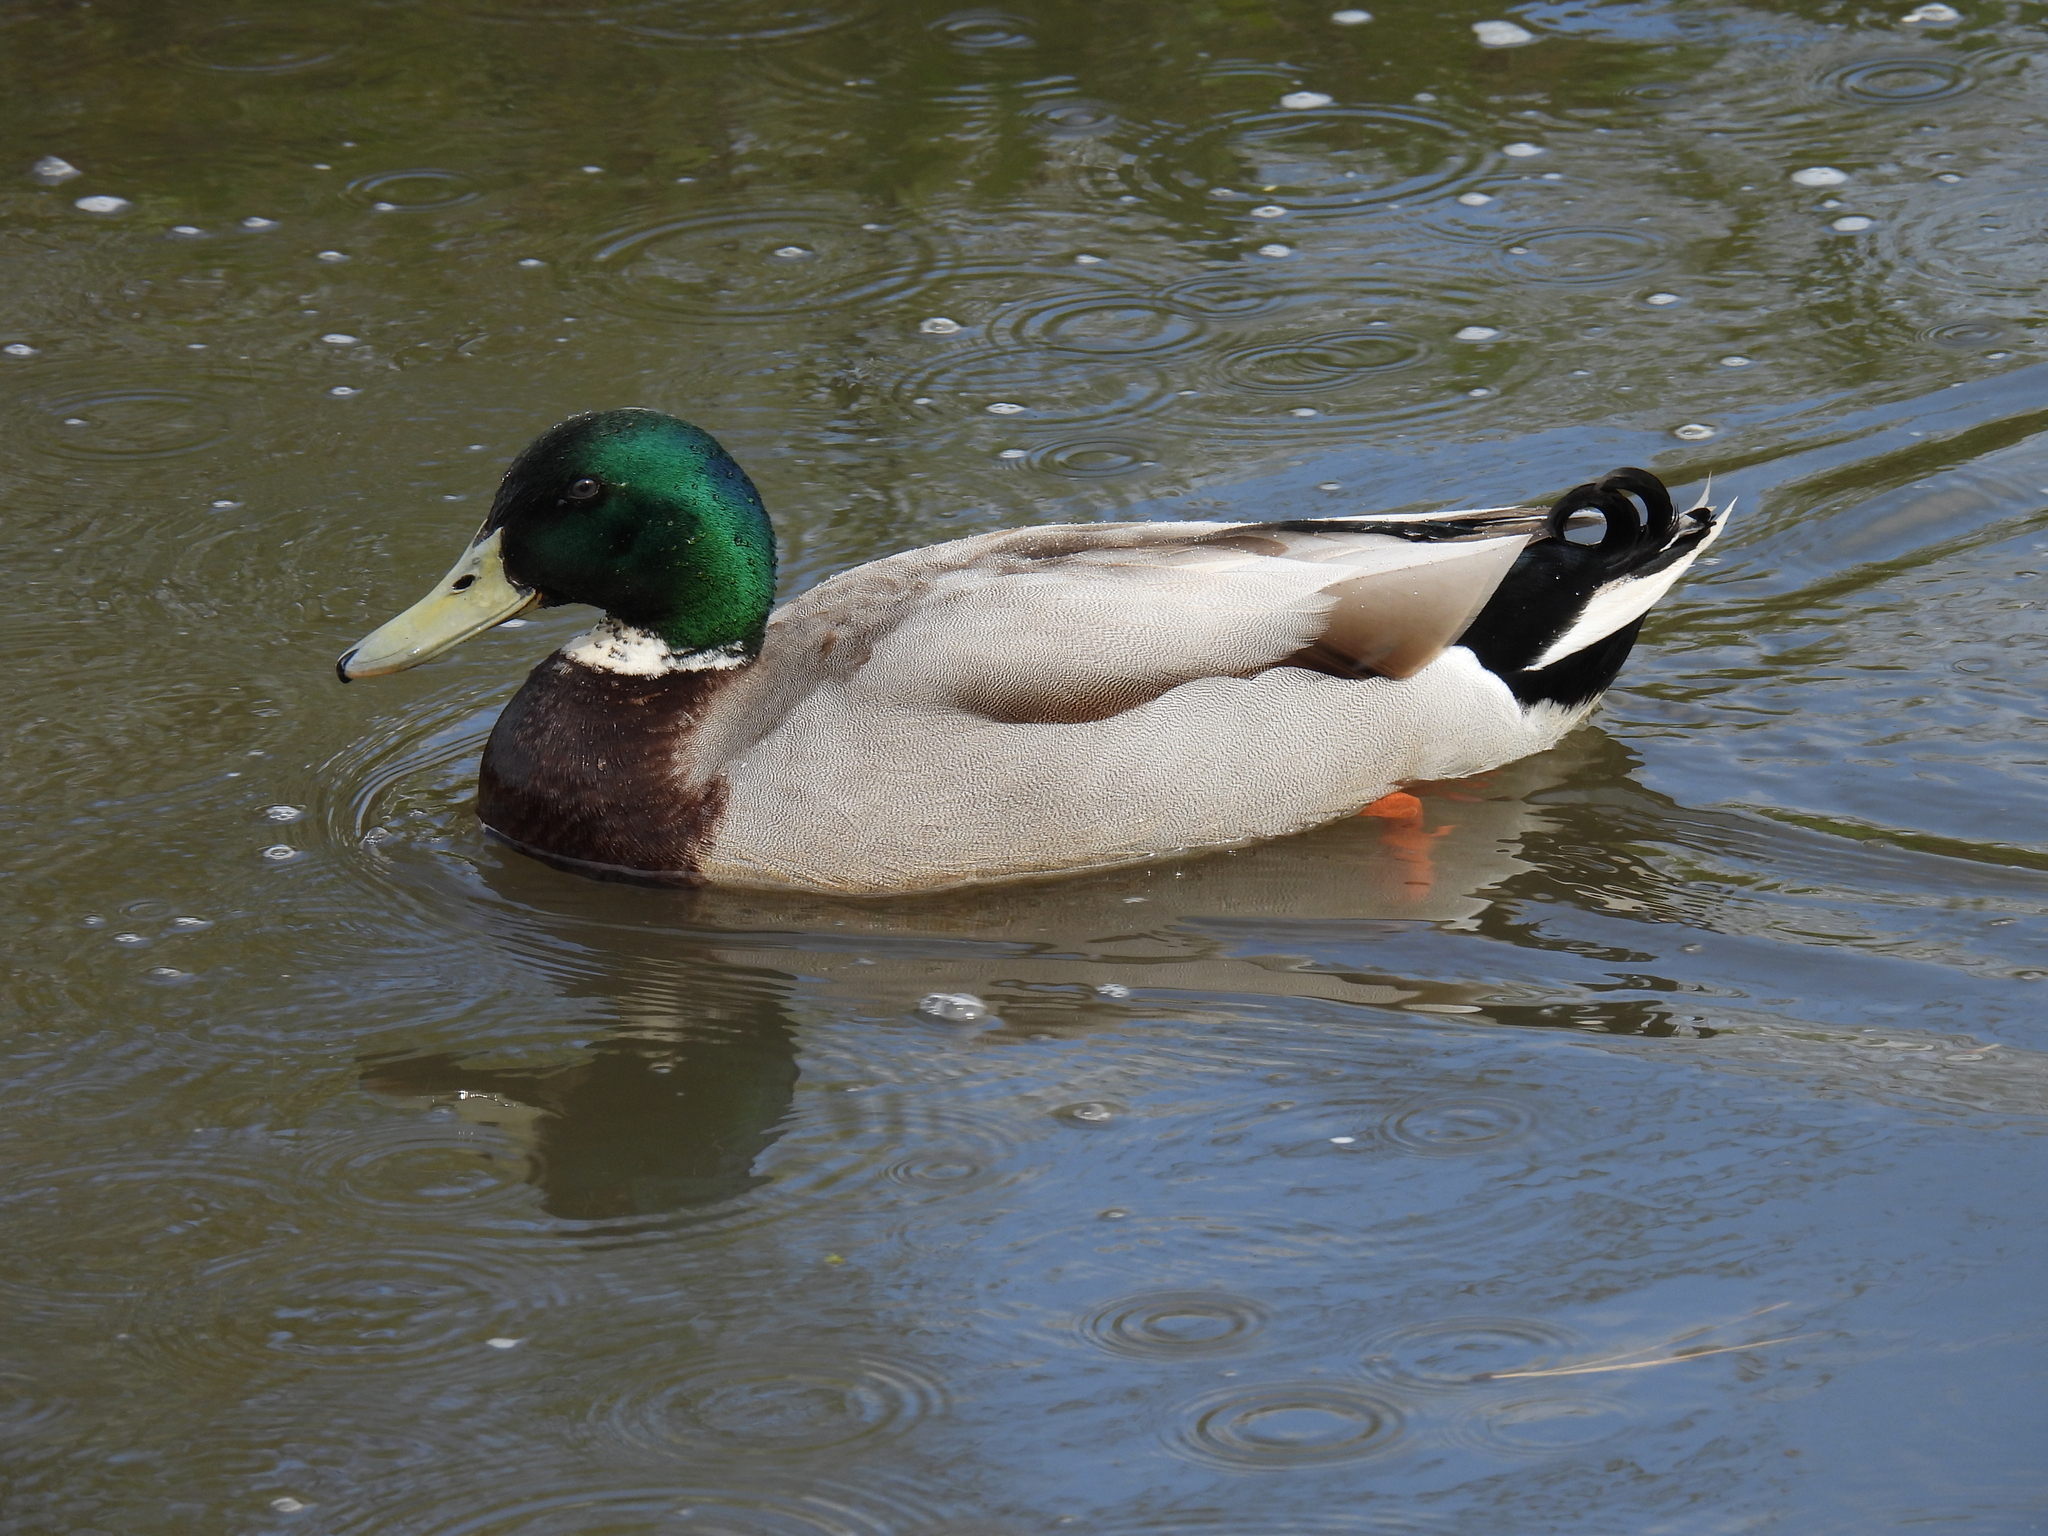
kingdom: Animalia
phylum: Chordata
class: Aves
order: Anseriformes
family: Anatidae
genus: Anas
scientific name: Anas platyrhynchos
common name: Mallard
